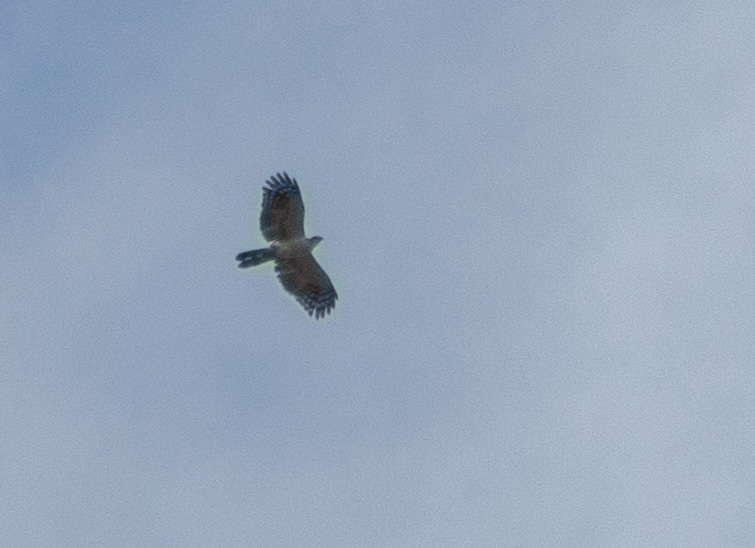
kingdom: Animalia
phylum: Chordata
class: Aves
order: Accipitriformes
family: Accipitridae
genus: Leptodon
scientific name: Leptodon forbesi
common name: White-collared kite
